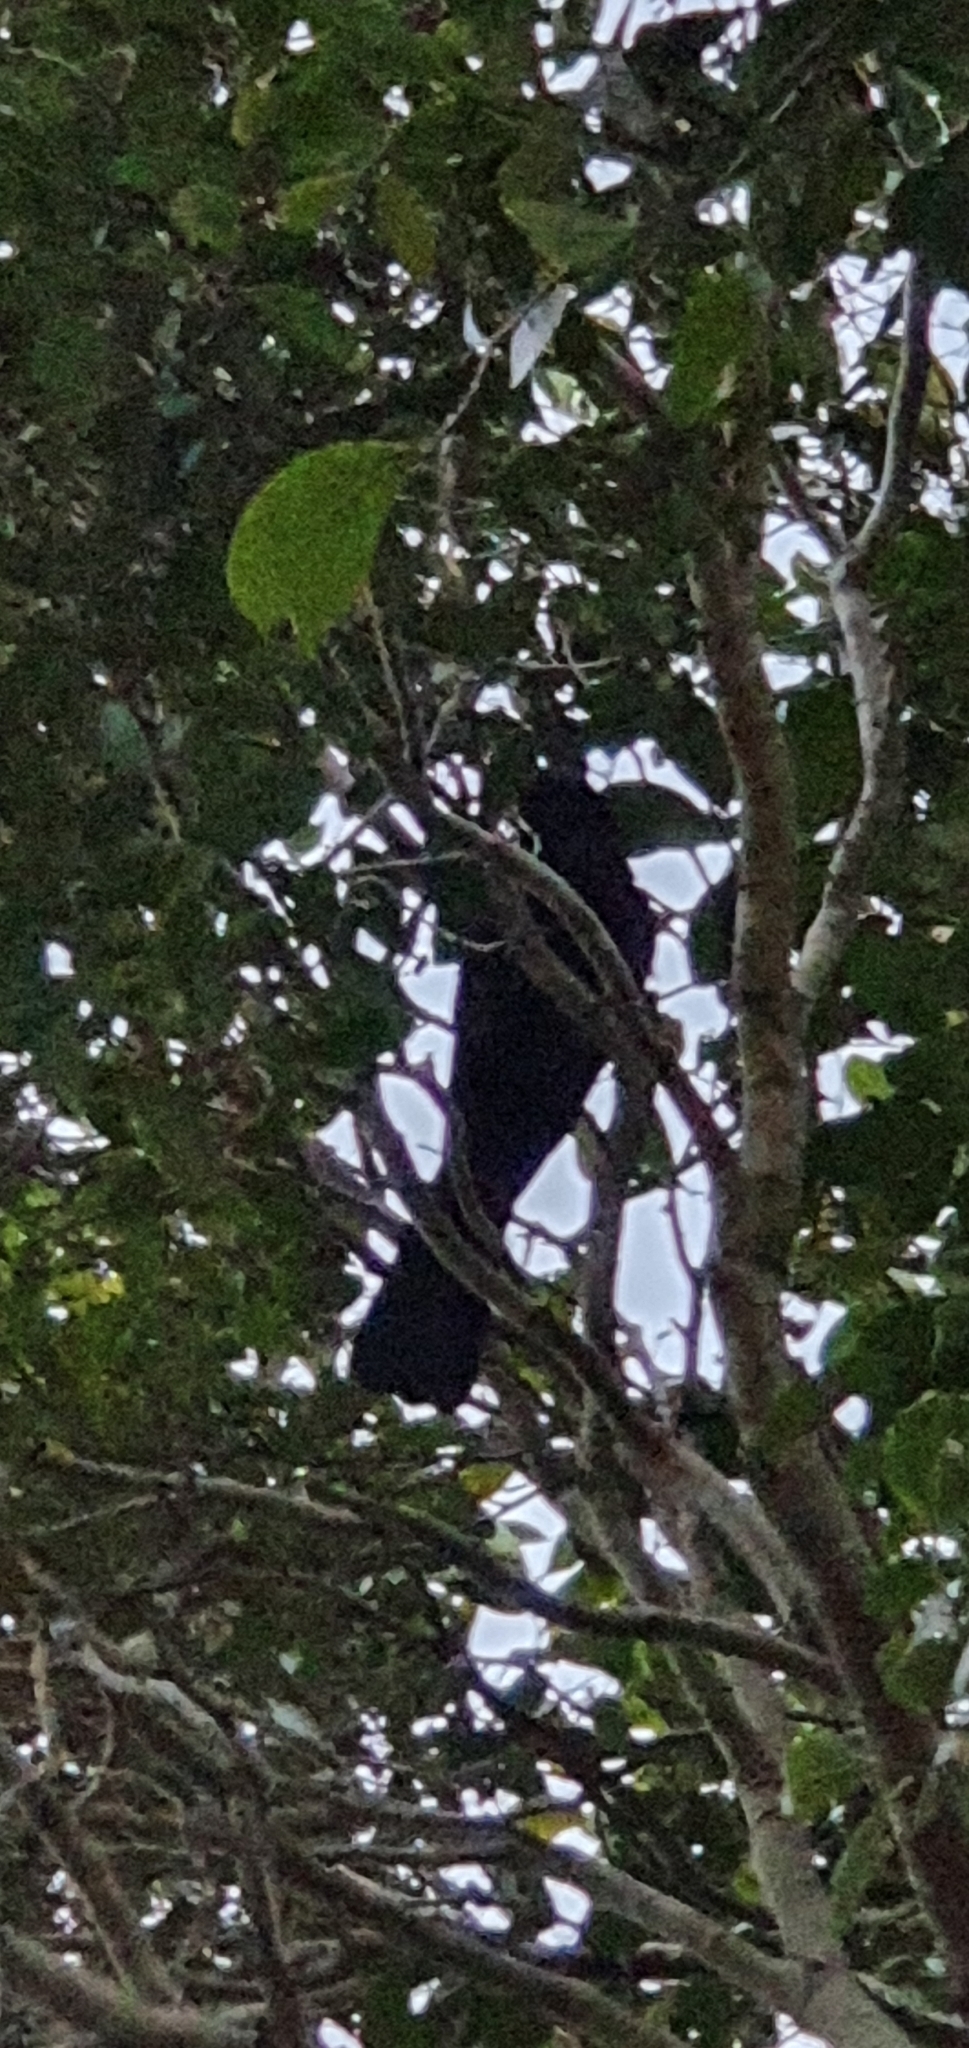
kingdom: Animalia
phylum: Chordata
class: Aves
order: Cuculiformes
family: Cuculidae
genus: Eudynamys
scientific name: Eudynamys orientalis
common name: Pacific koel
